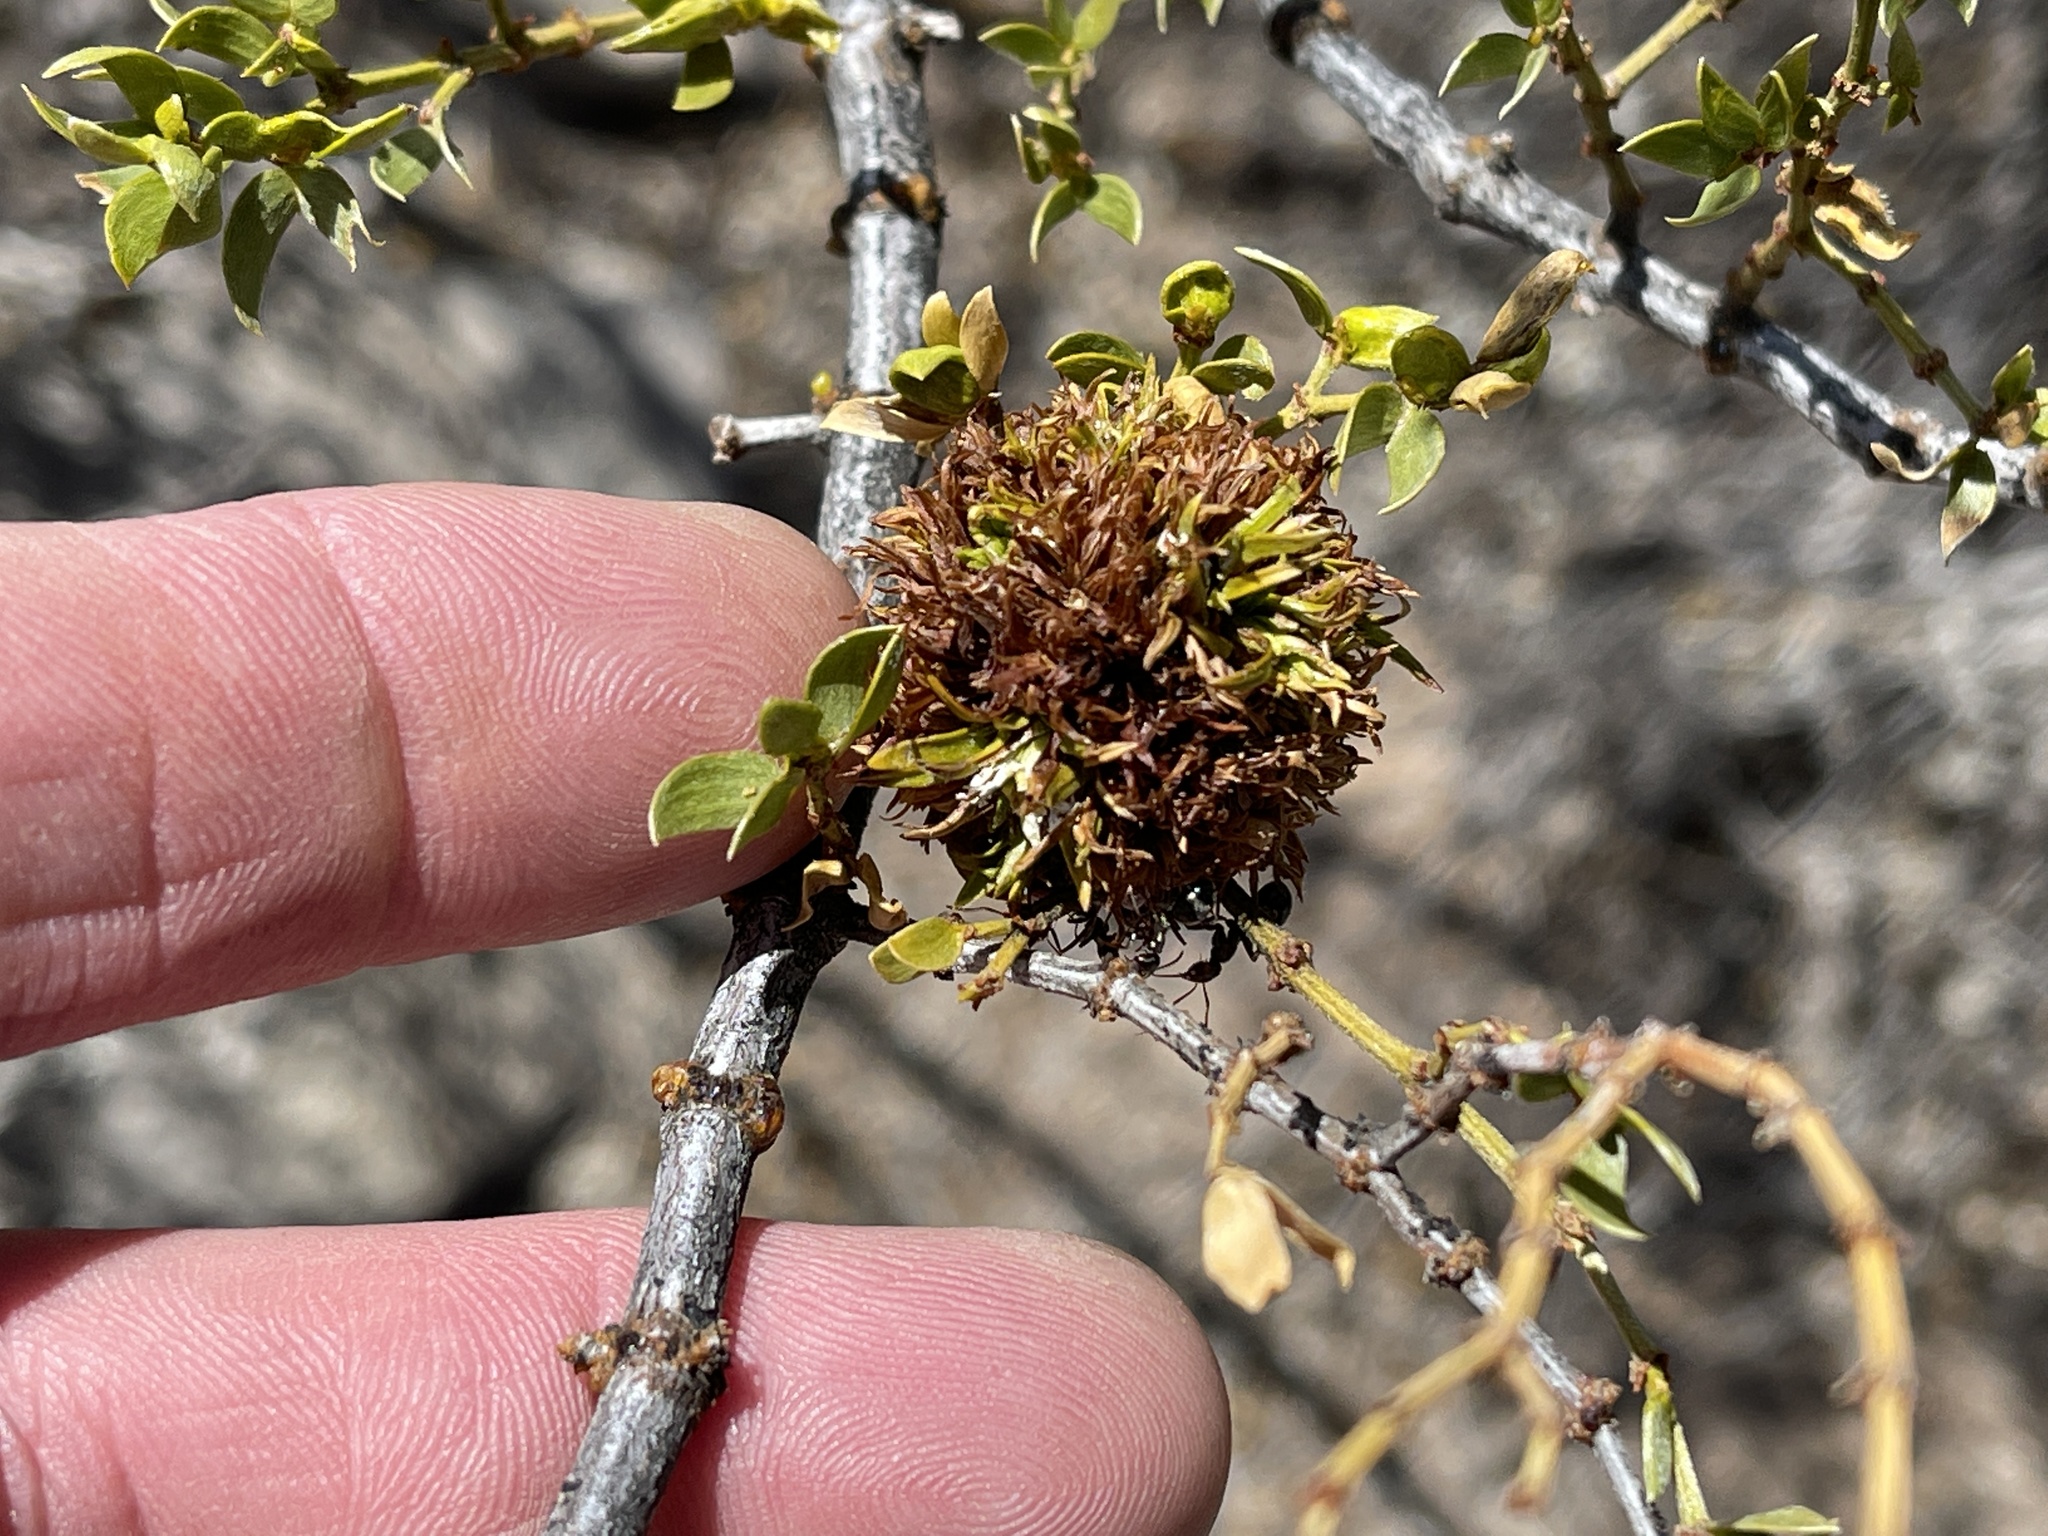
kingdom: Animalia
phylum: Arthropoda
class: Insecta
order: Diptera
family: Cecidomyiidae
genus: Asphondylia
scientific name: Asphondylia auripila
